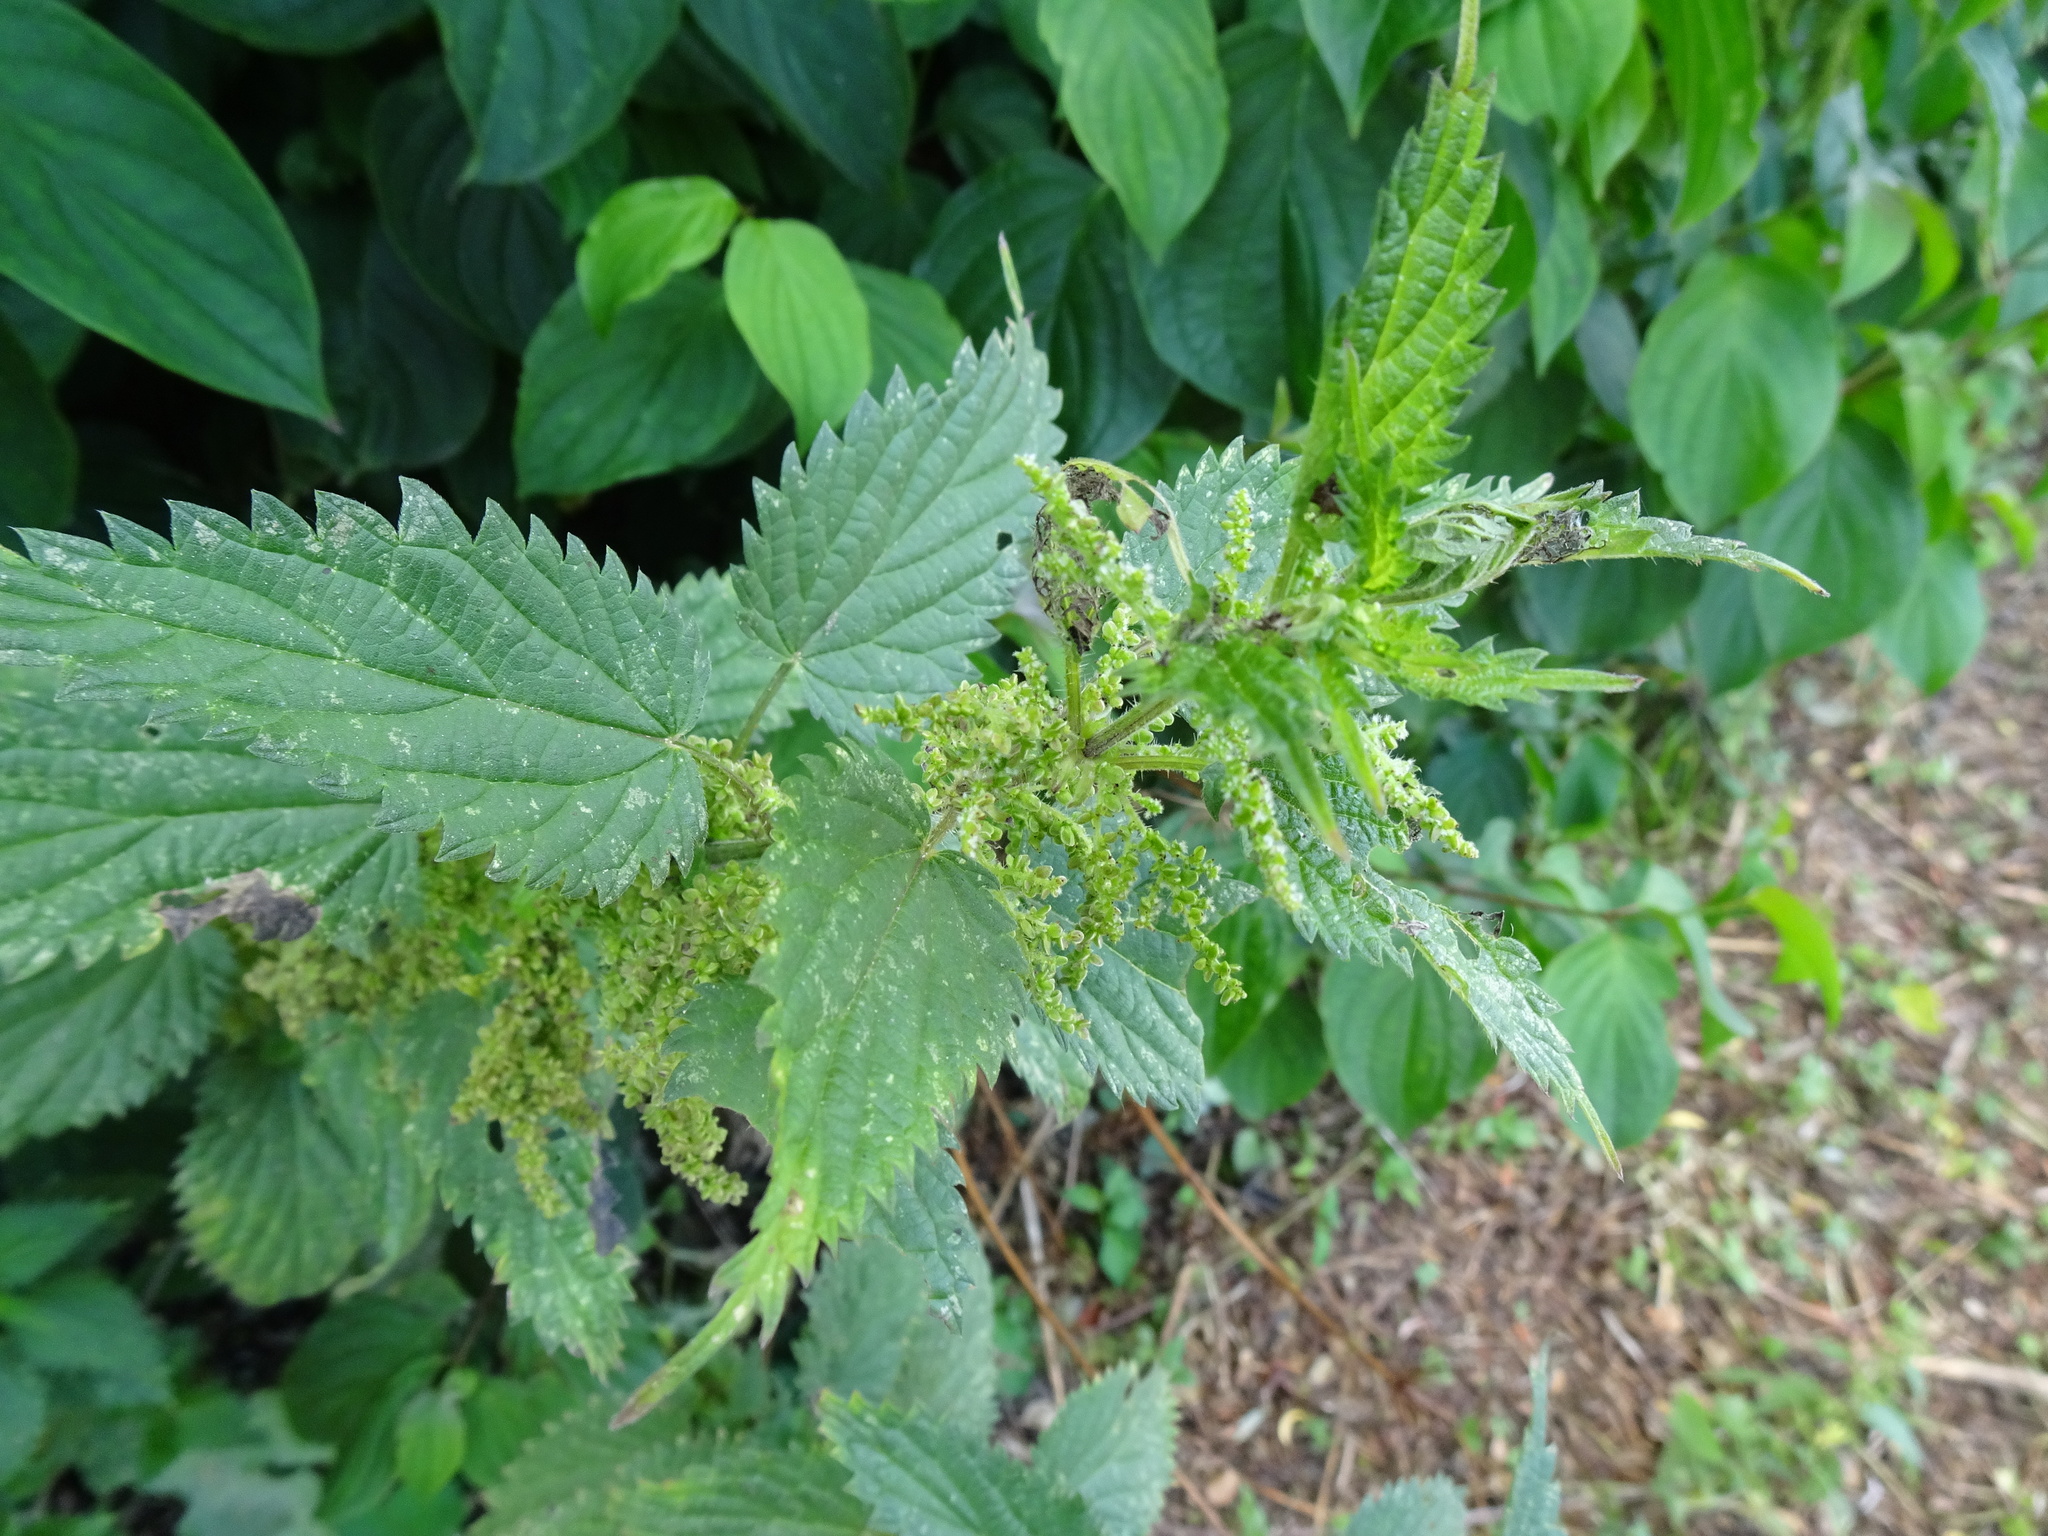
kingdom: Plantae
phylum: Tracheophyta
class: Magnoliopsida
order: Rosales
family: Urticaceae
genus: Urtica
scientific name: Urtica dioica
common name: Common nettle
